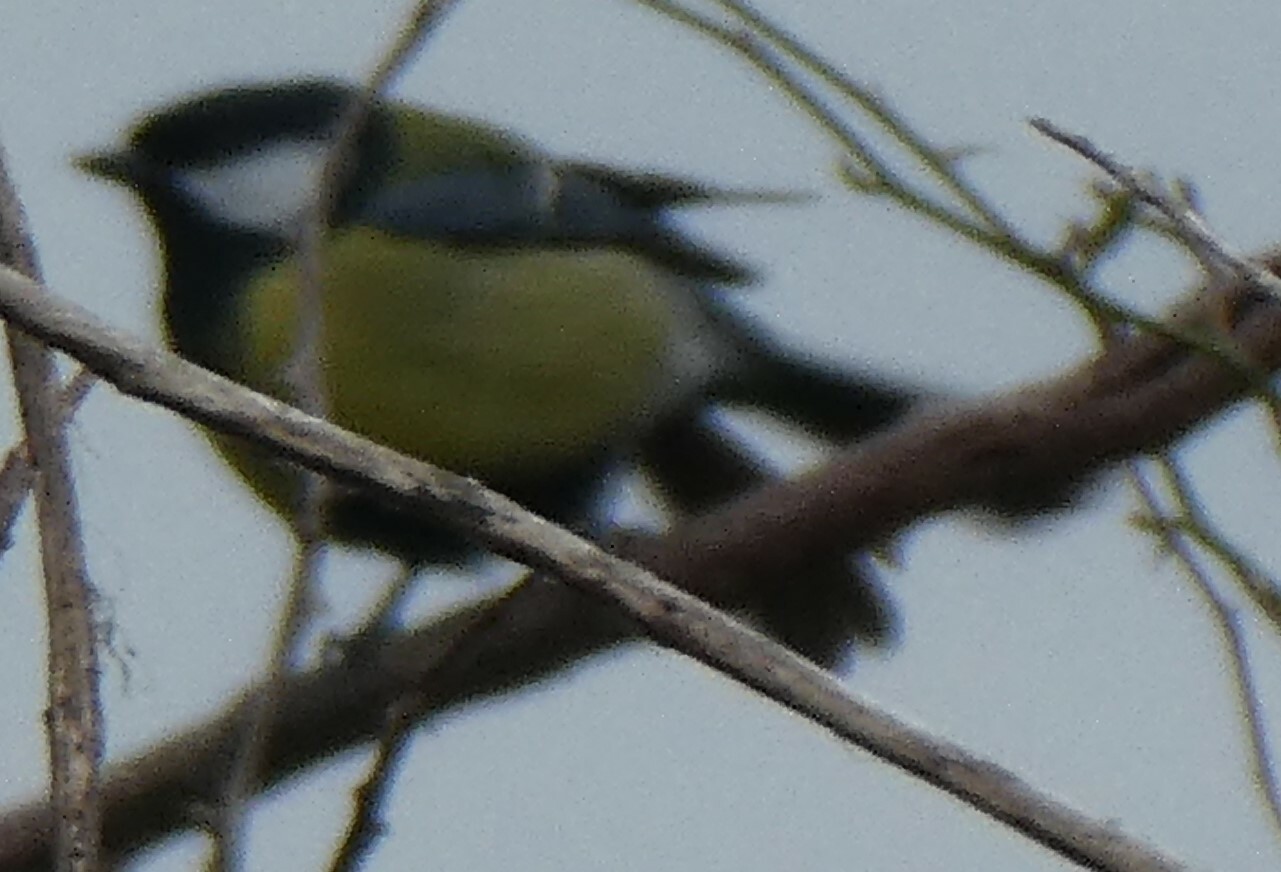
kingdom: Animalia
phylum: Chordata
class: Aves
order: Passeriformes
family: Paridae
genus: Parus
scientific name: Parus major
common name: Great tit
